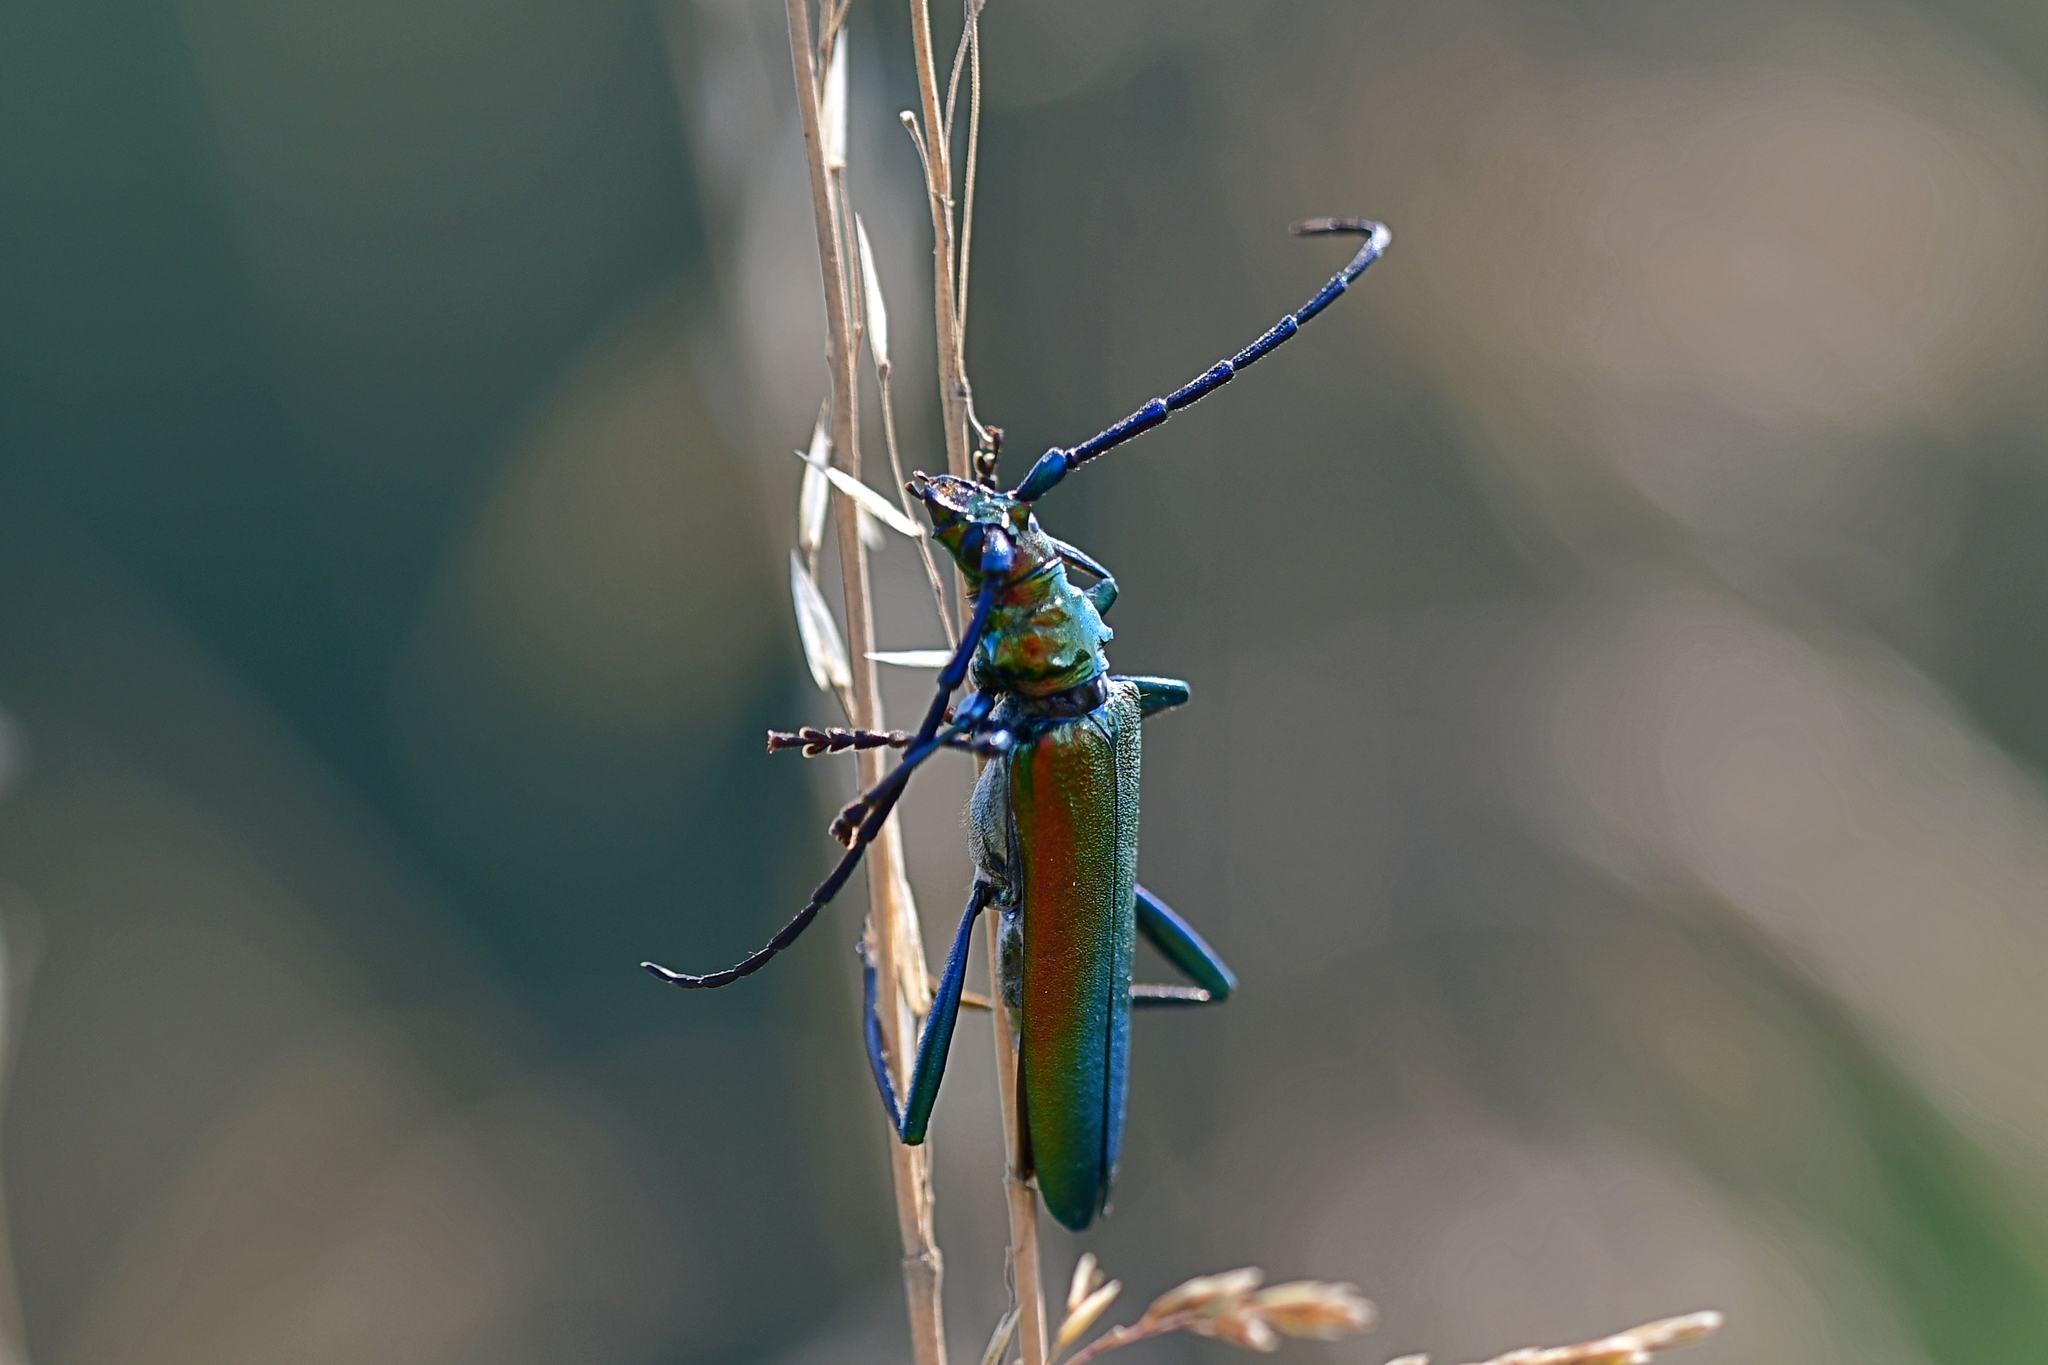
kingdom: Animalia
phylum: Arthropoda
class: Insecta
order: Coleoptera
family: Cerambycidae
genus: Aromia
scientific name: Aromia moschata
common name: Musk beetle
